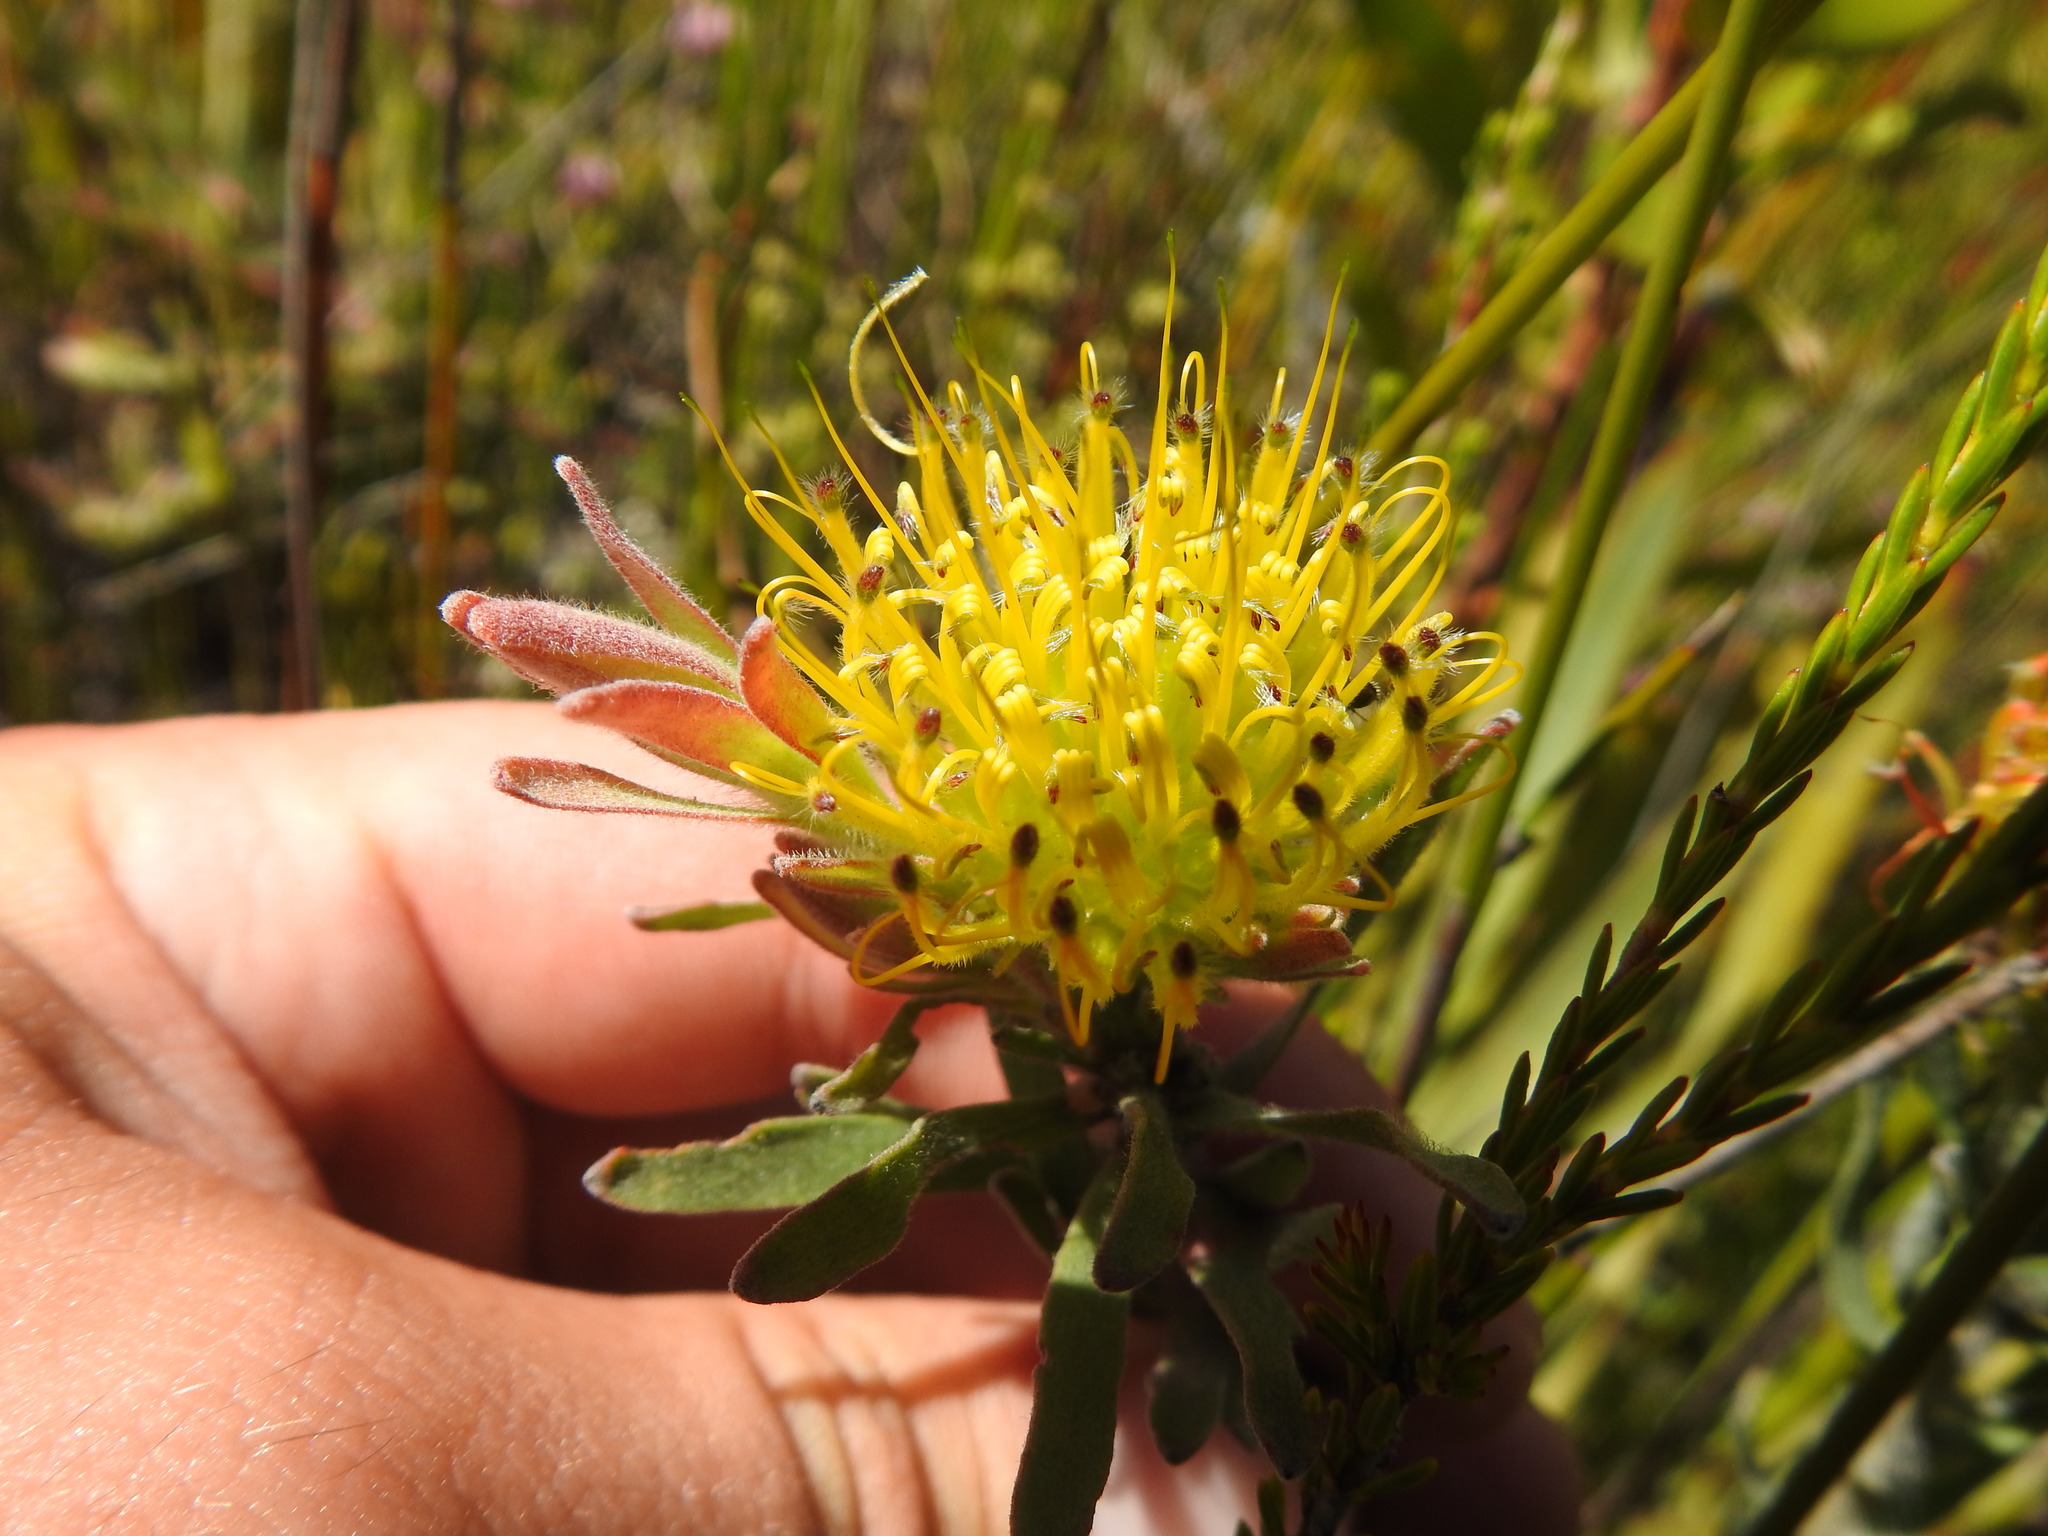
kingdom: Plantae
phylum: Tracheophyta
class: Magnoliopsida
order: Proteales
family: Proteaceae
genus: Leucospermum
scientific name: Leucospermum gracile
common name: Hermanus pincushion
